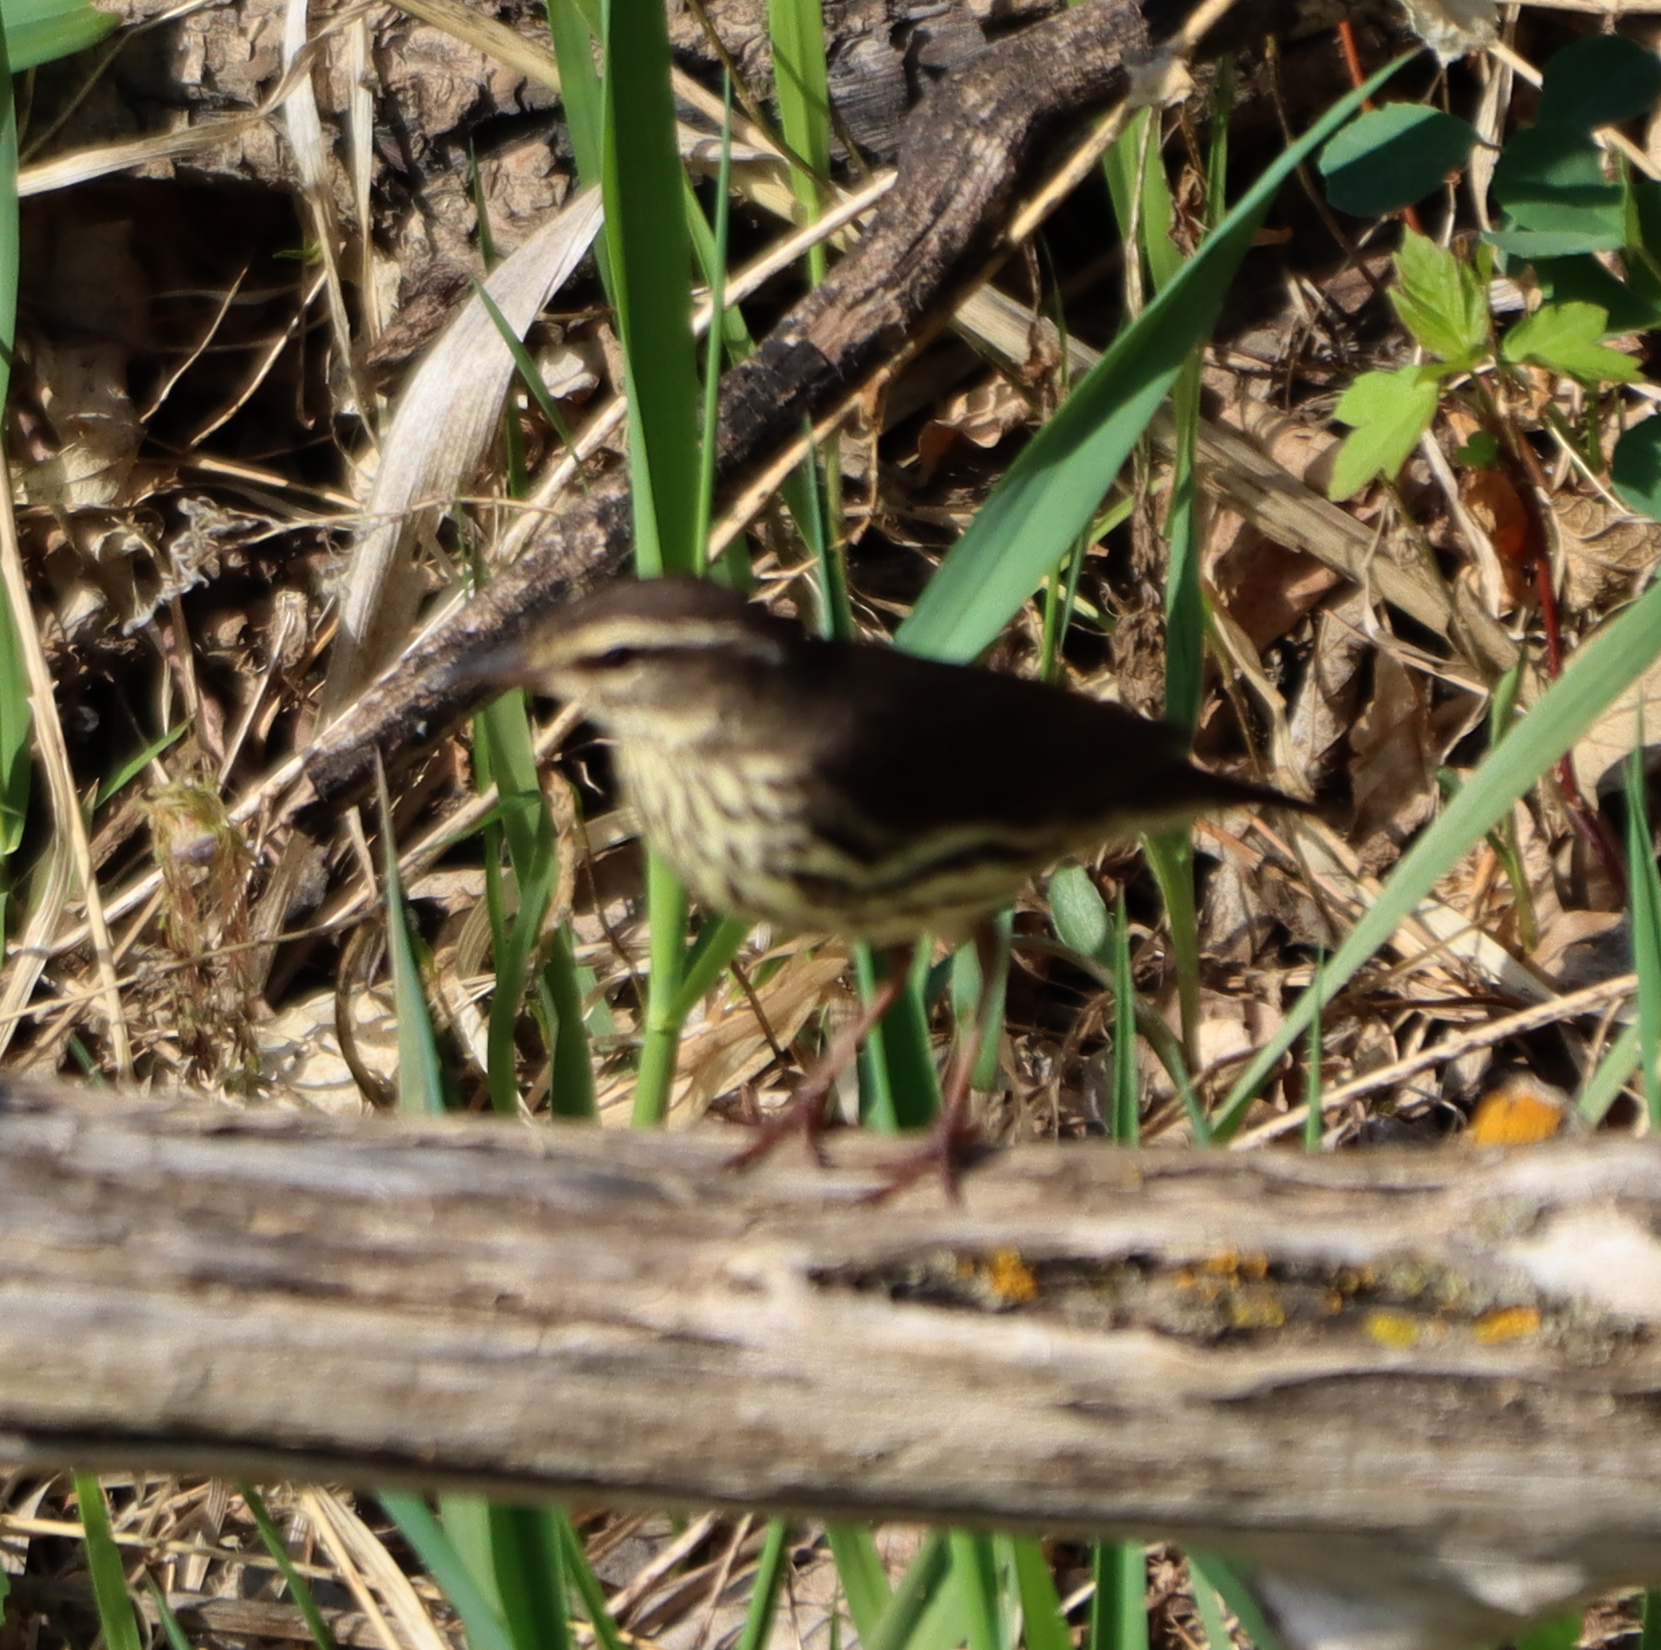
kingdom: Animalia
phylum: Chordata
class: Aves
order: Passeriformes
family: Parulidae
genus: Parkesia
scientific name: Parkesia noveboracensis
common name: Northern waterthrush
